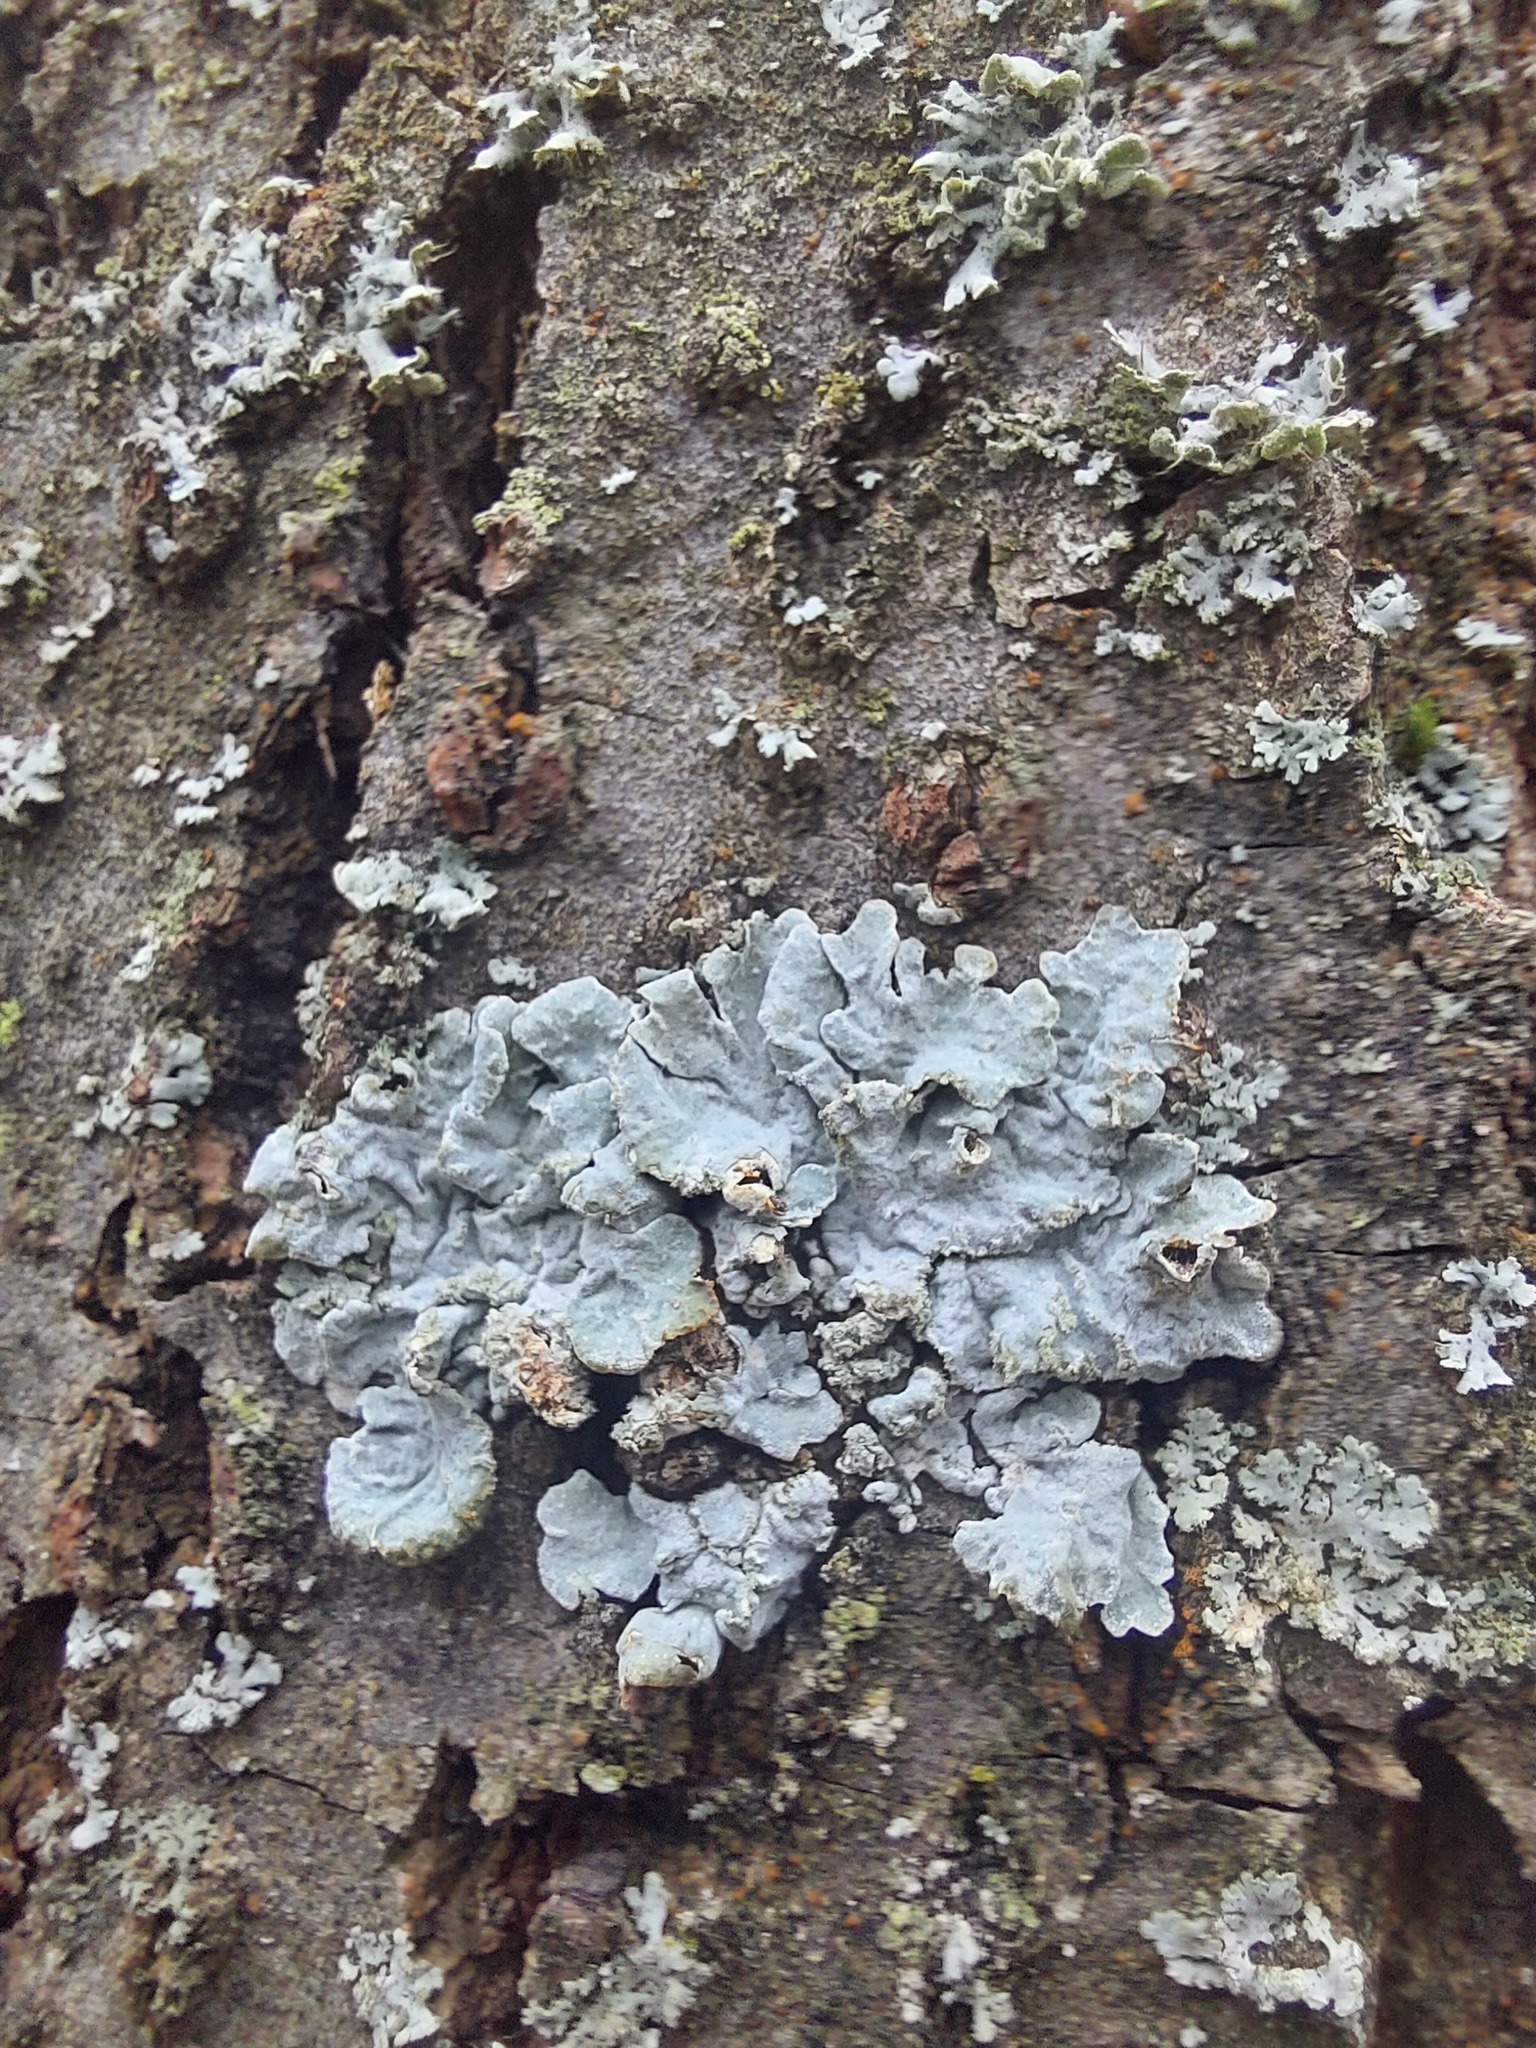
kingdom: Fungi
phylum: Ascomycota
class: Lecanoromycetes
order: Lecanorales
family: Parmeliaceae
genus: Parmelia
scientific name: Parmelia sulcata
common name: Netted shield lichen
